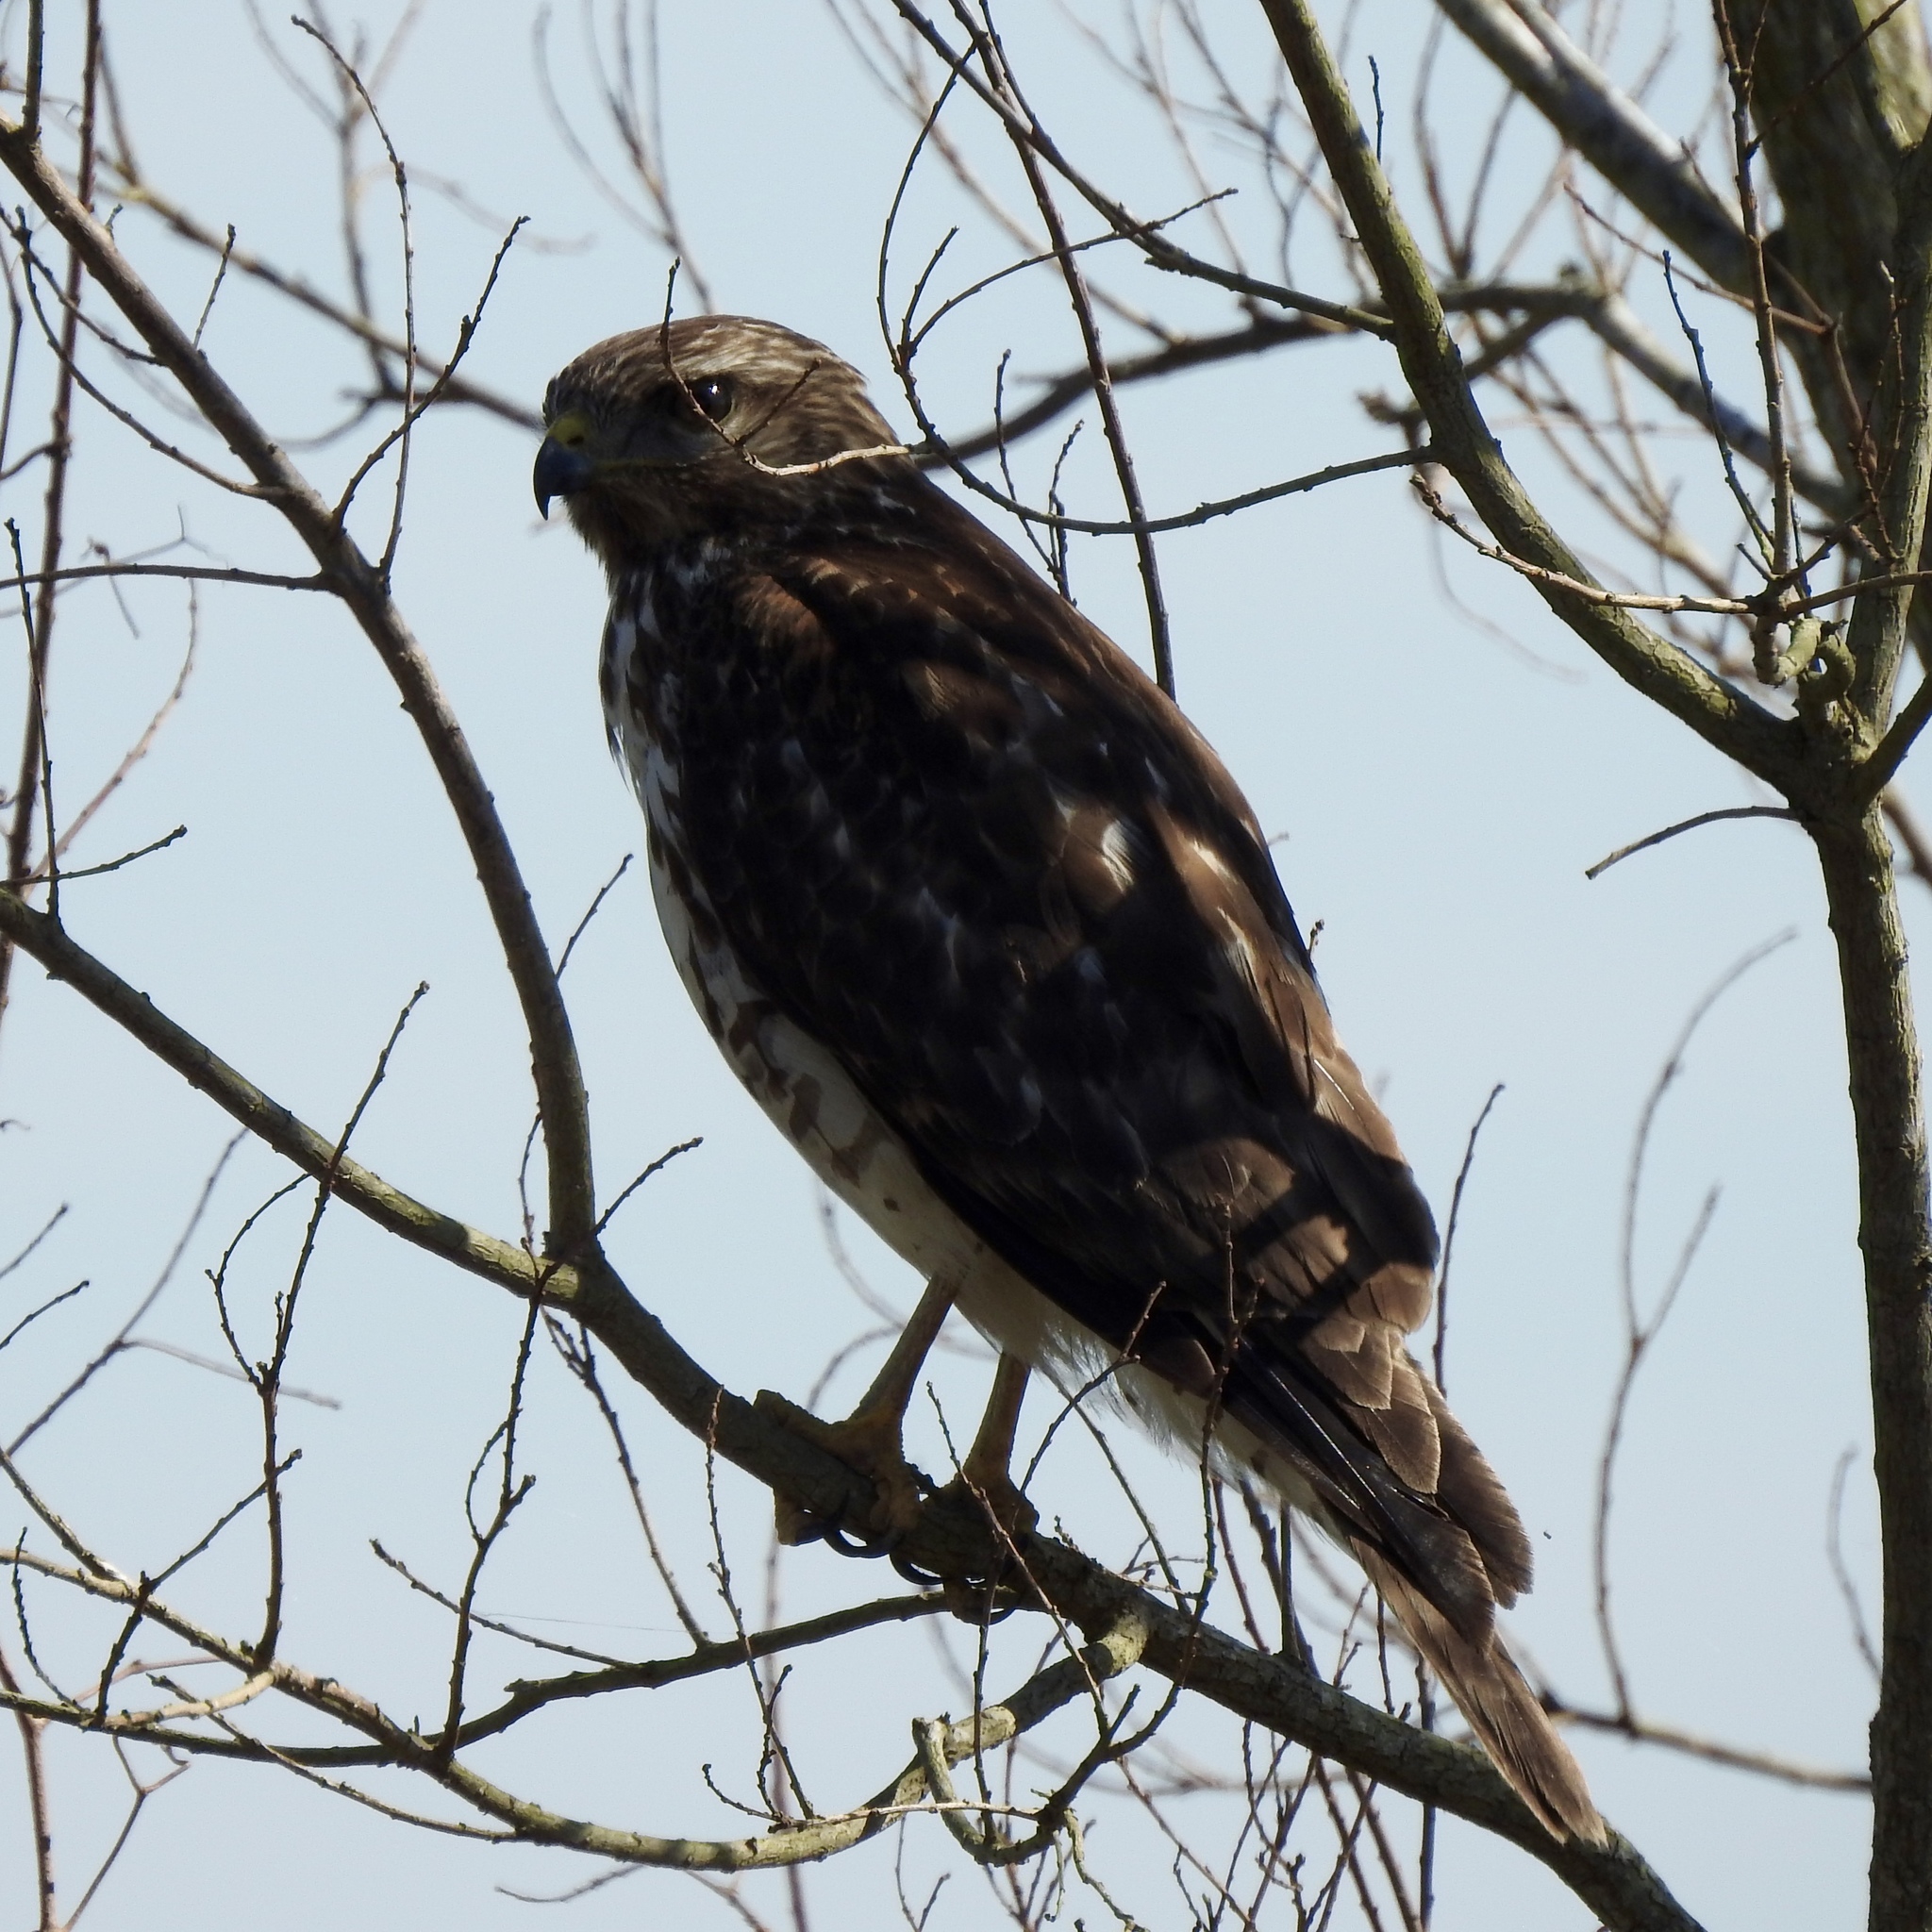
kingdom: Animalia
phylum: Chordata
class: Aves
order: Accipitriformes
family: Accipitridae
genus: Buteo
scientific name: Buteo lineatus
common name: Red-shouldered hawk
